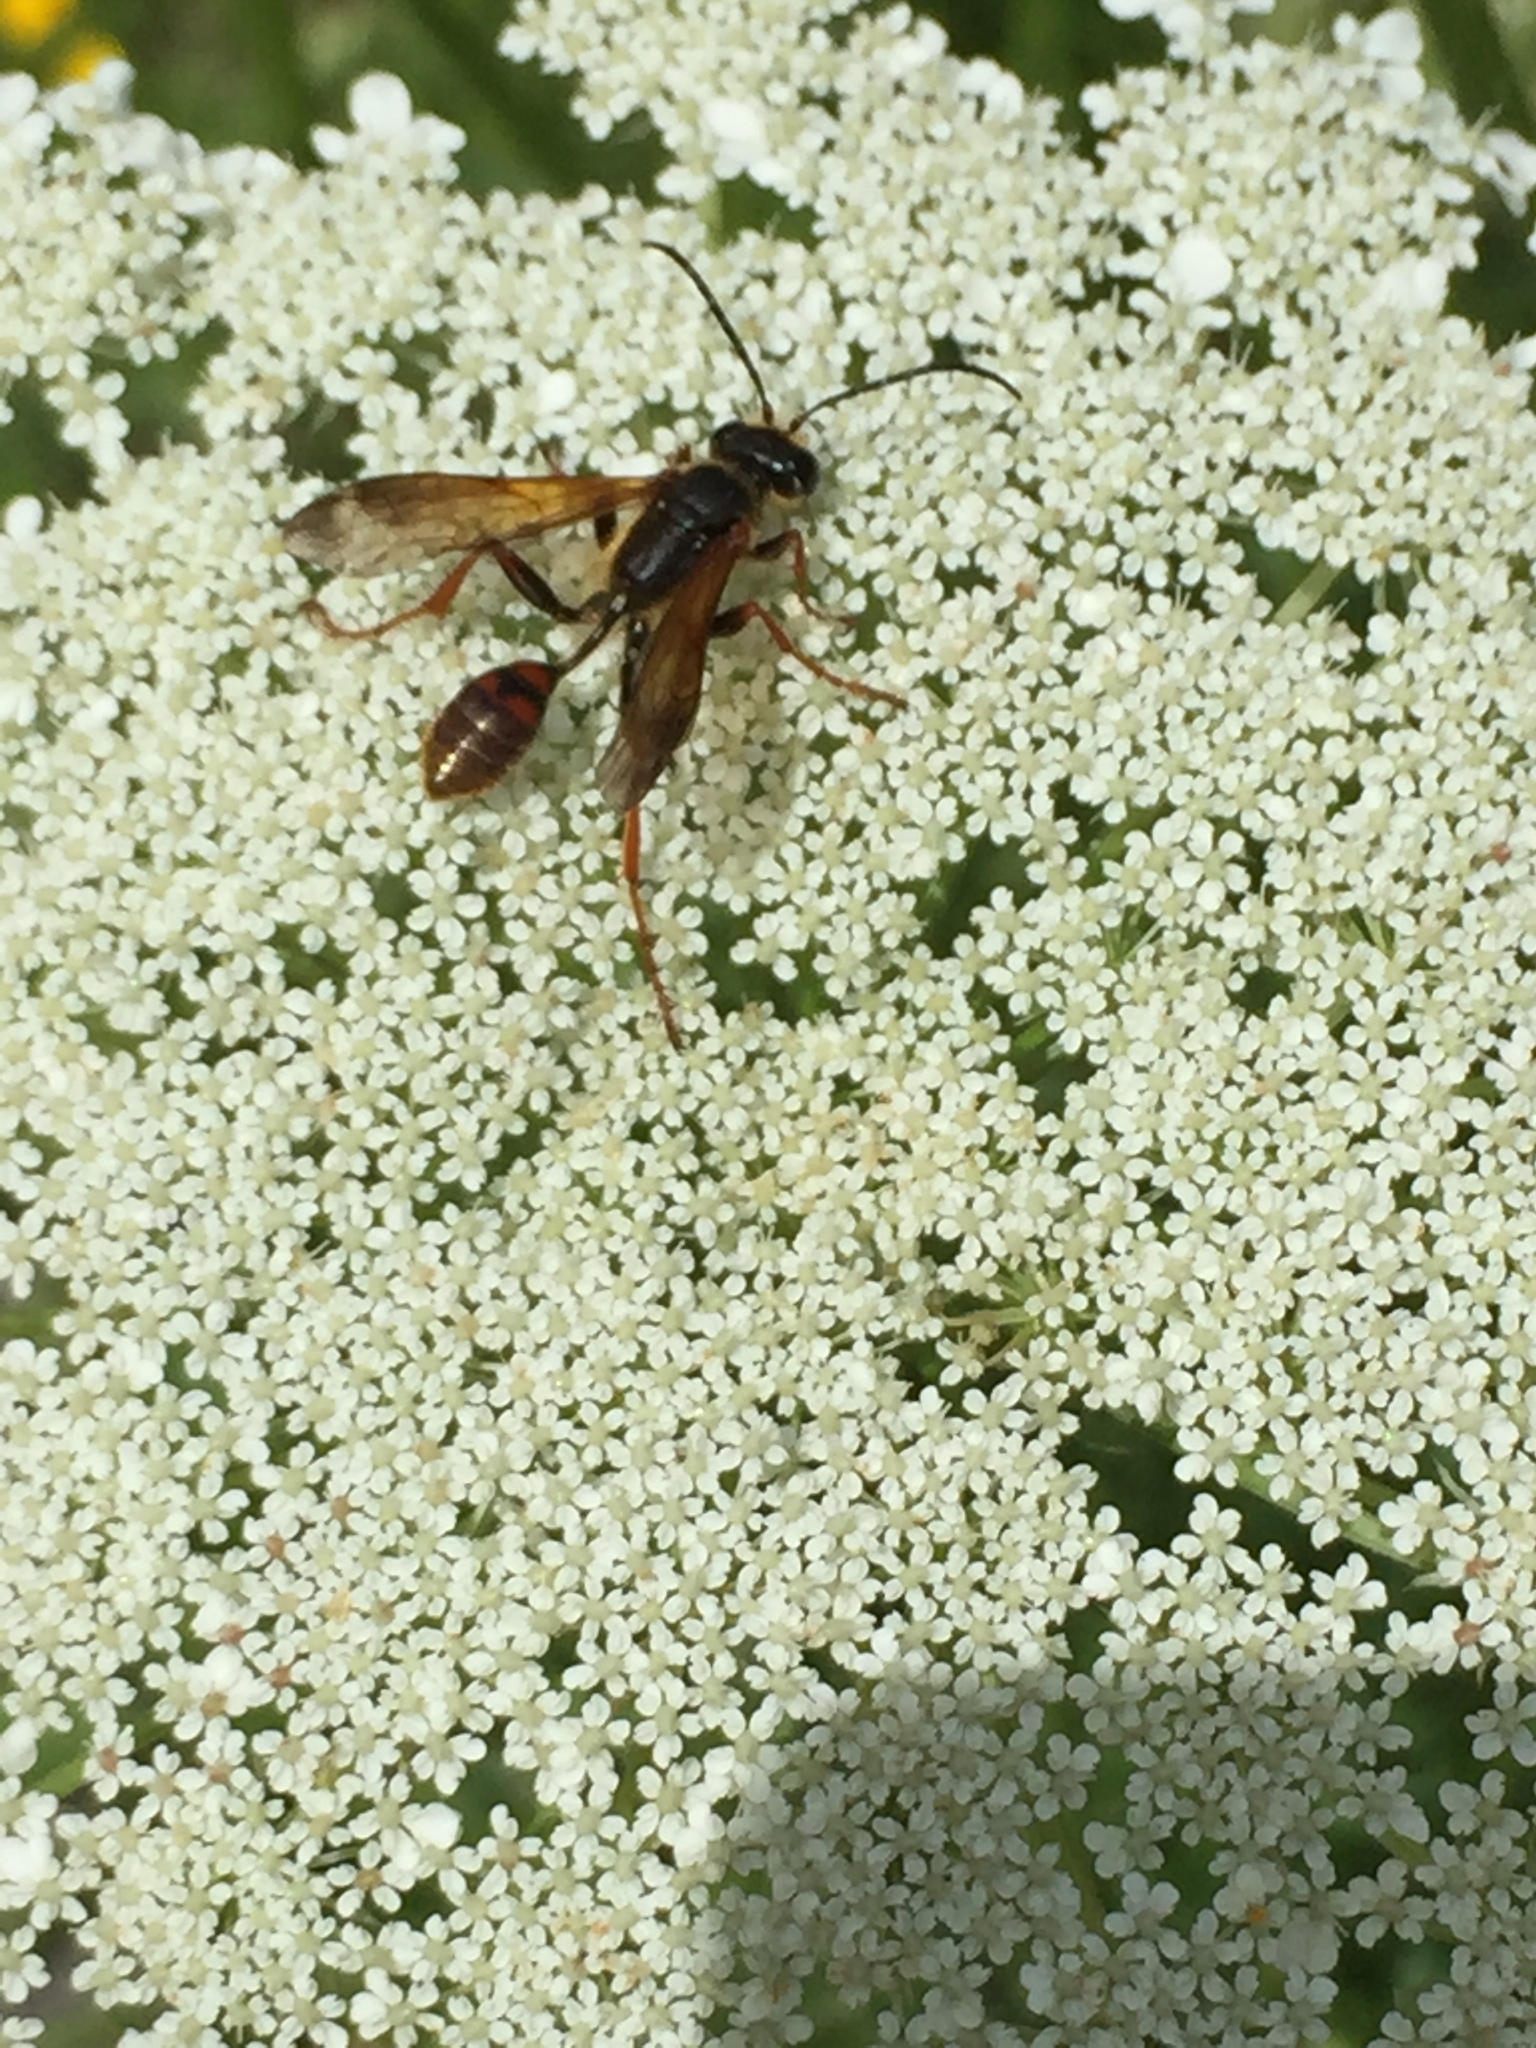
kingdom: Animalia
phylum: Arthropoda
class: Insecta
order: Hymenoptera
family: Sphecidae
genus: Isodontia
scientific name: Isodontia elegans
